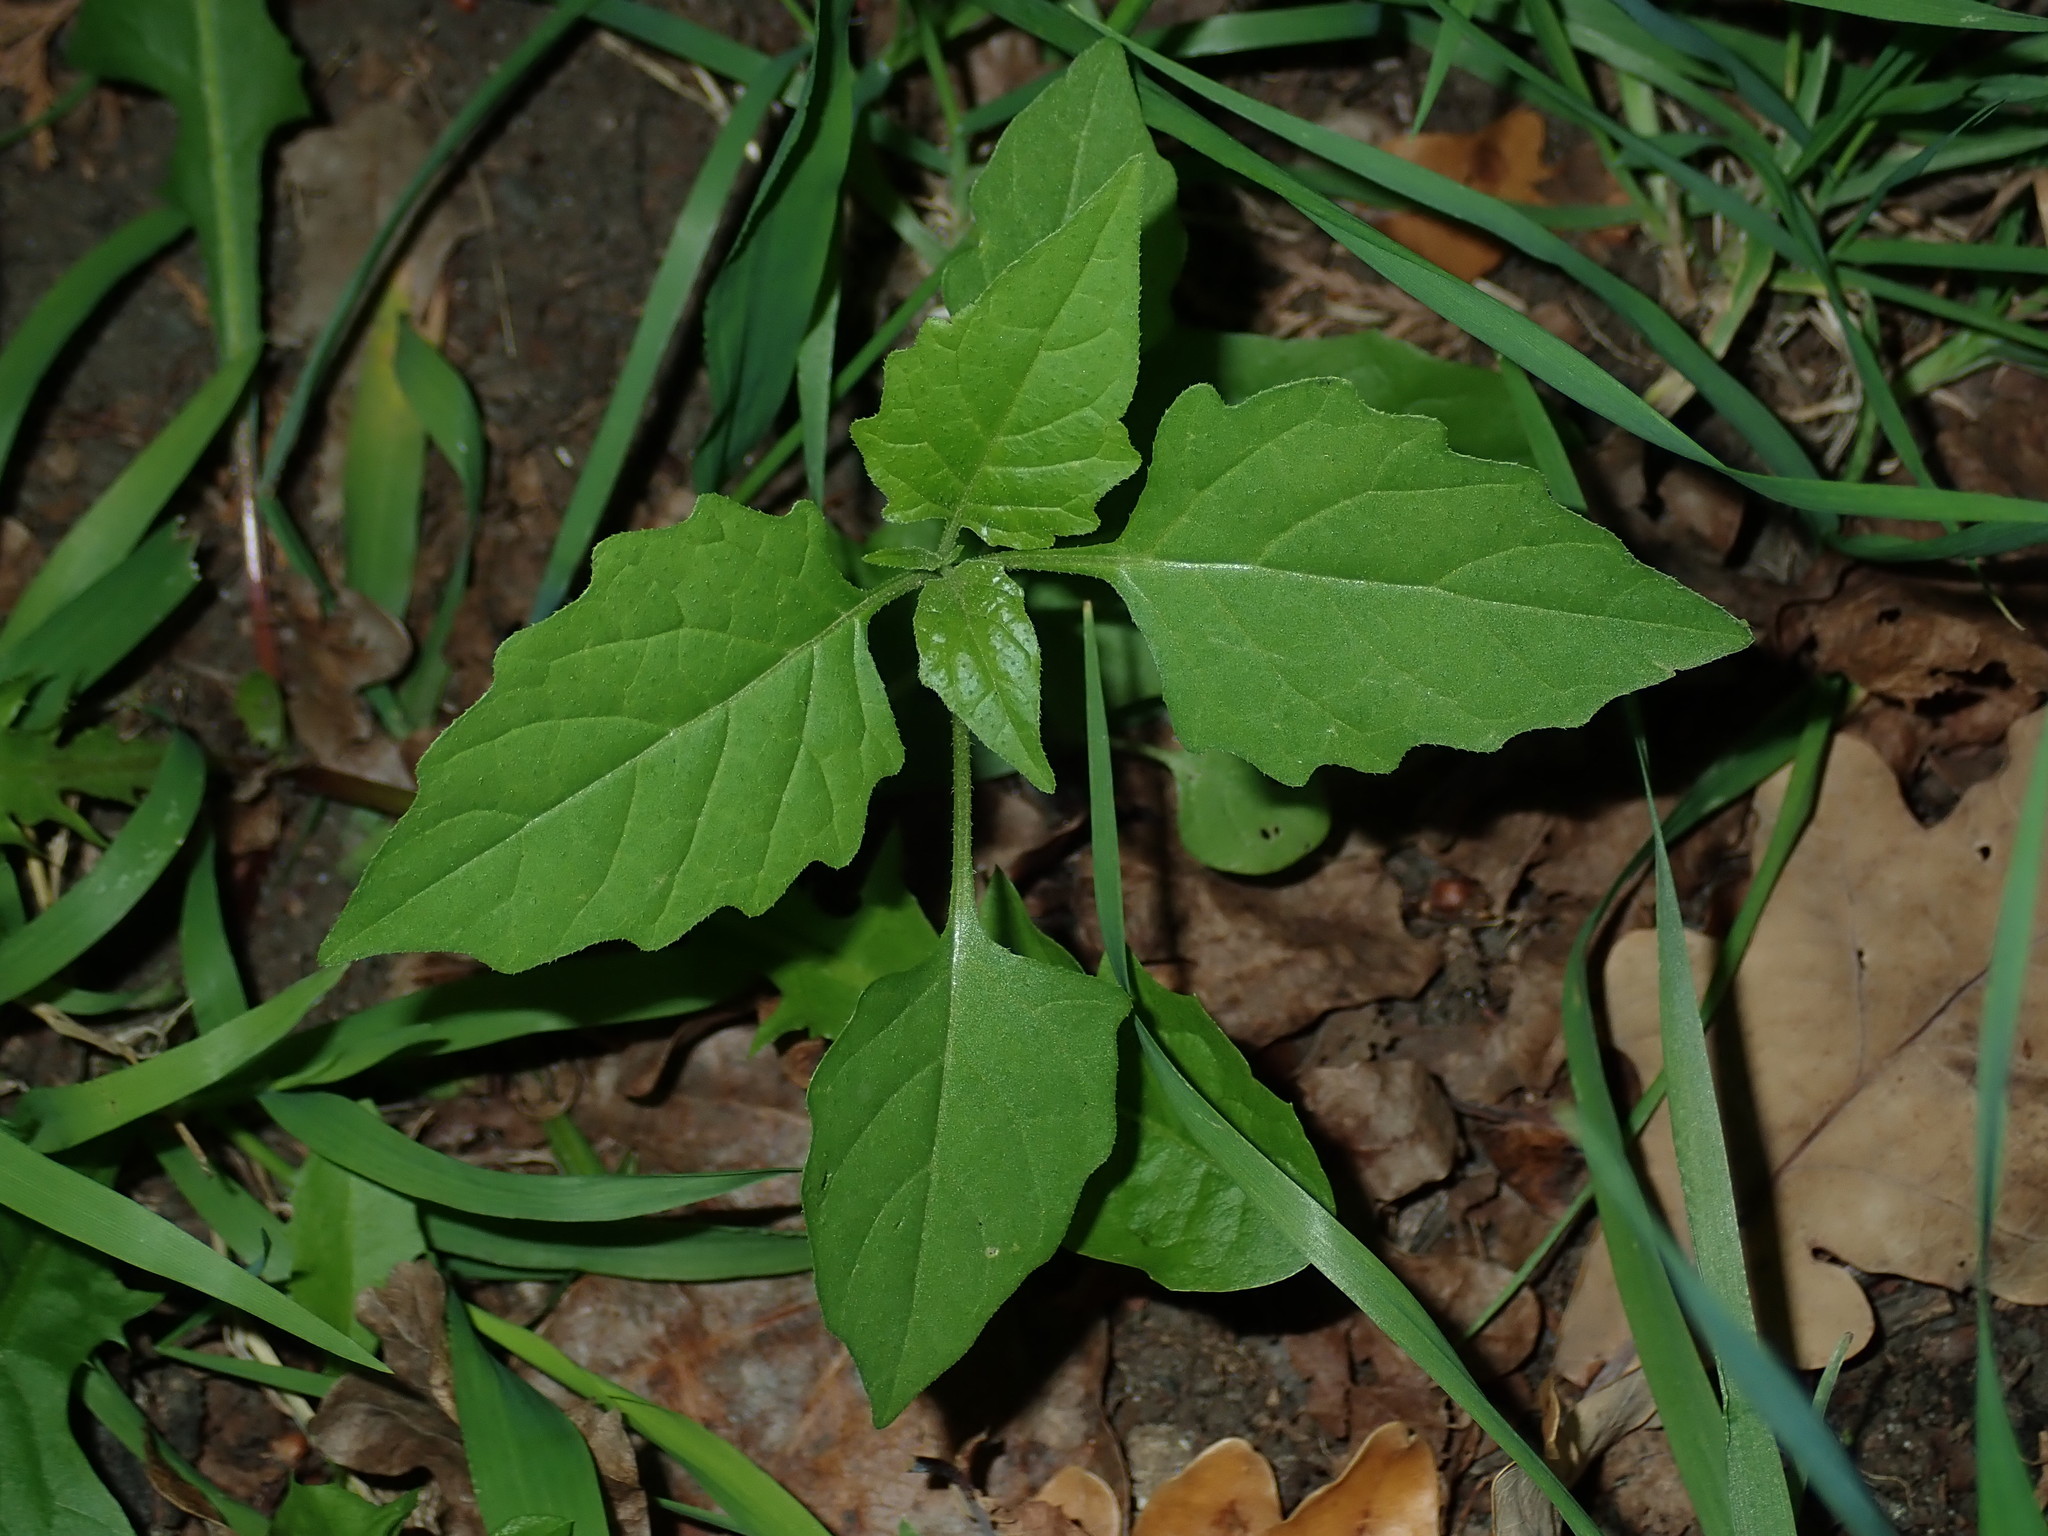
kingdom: Plantae
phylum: Tracheophyta
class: Magnoliopsida
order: Solanales
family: Solanaceae
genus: Solanum
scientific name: Solanum
